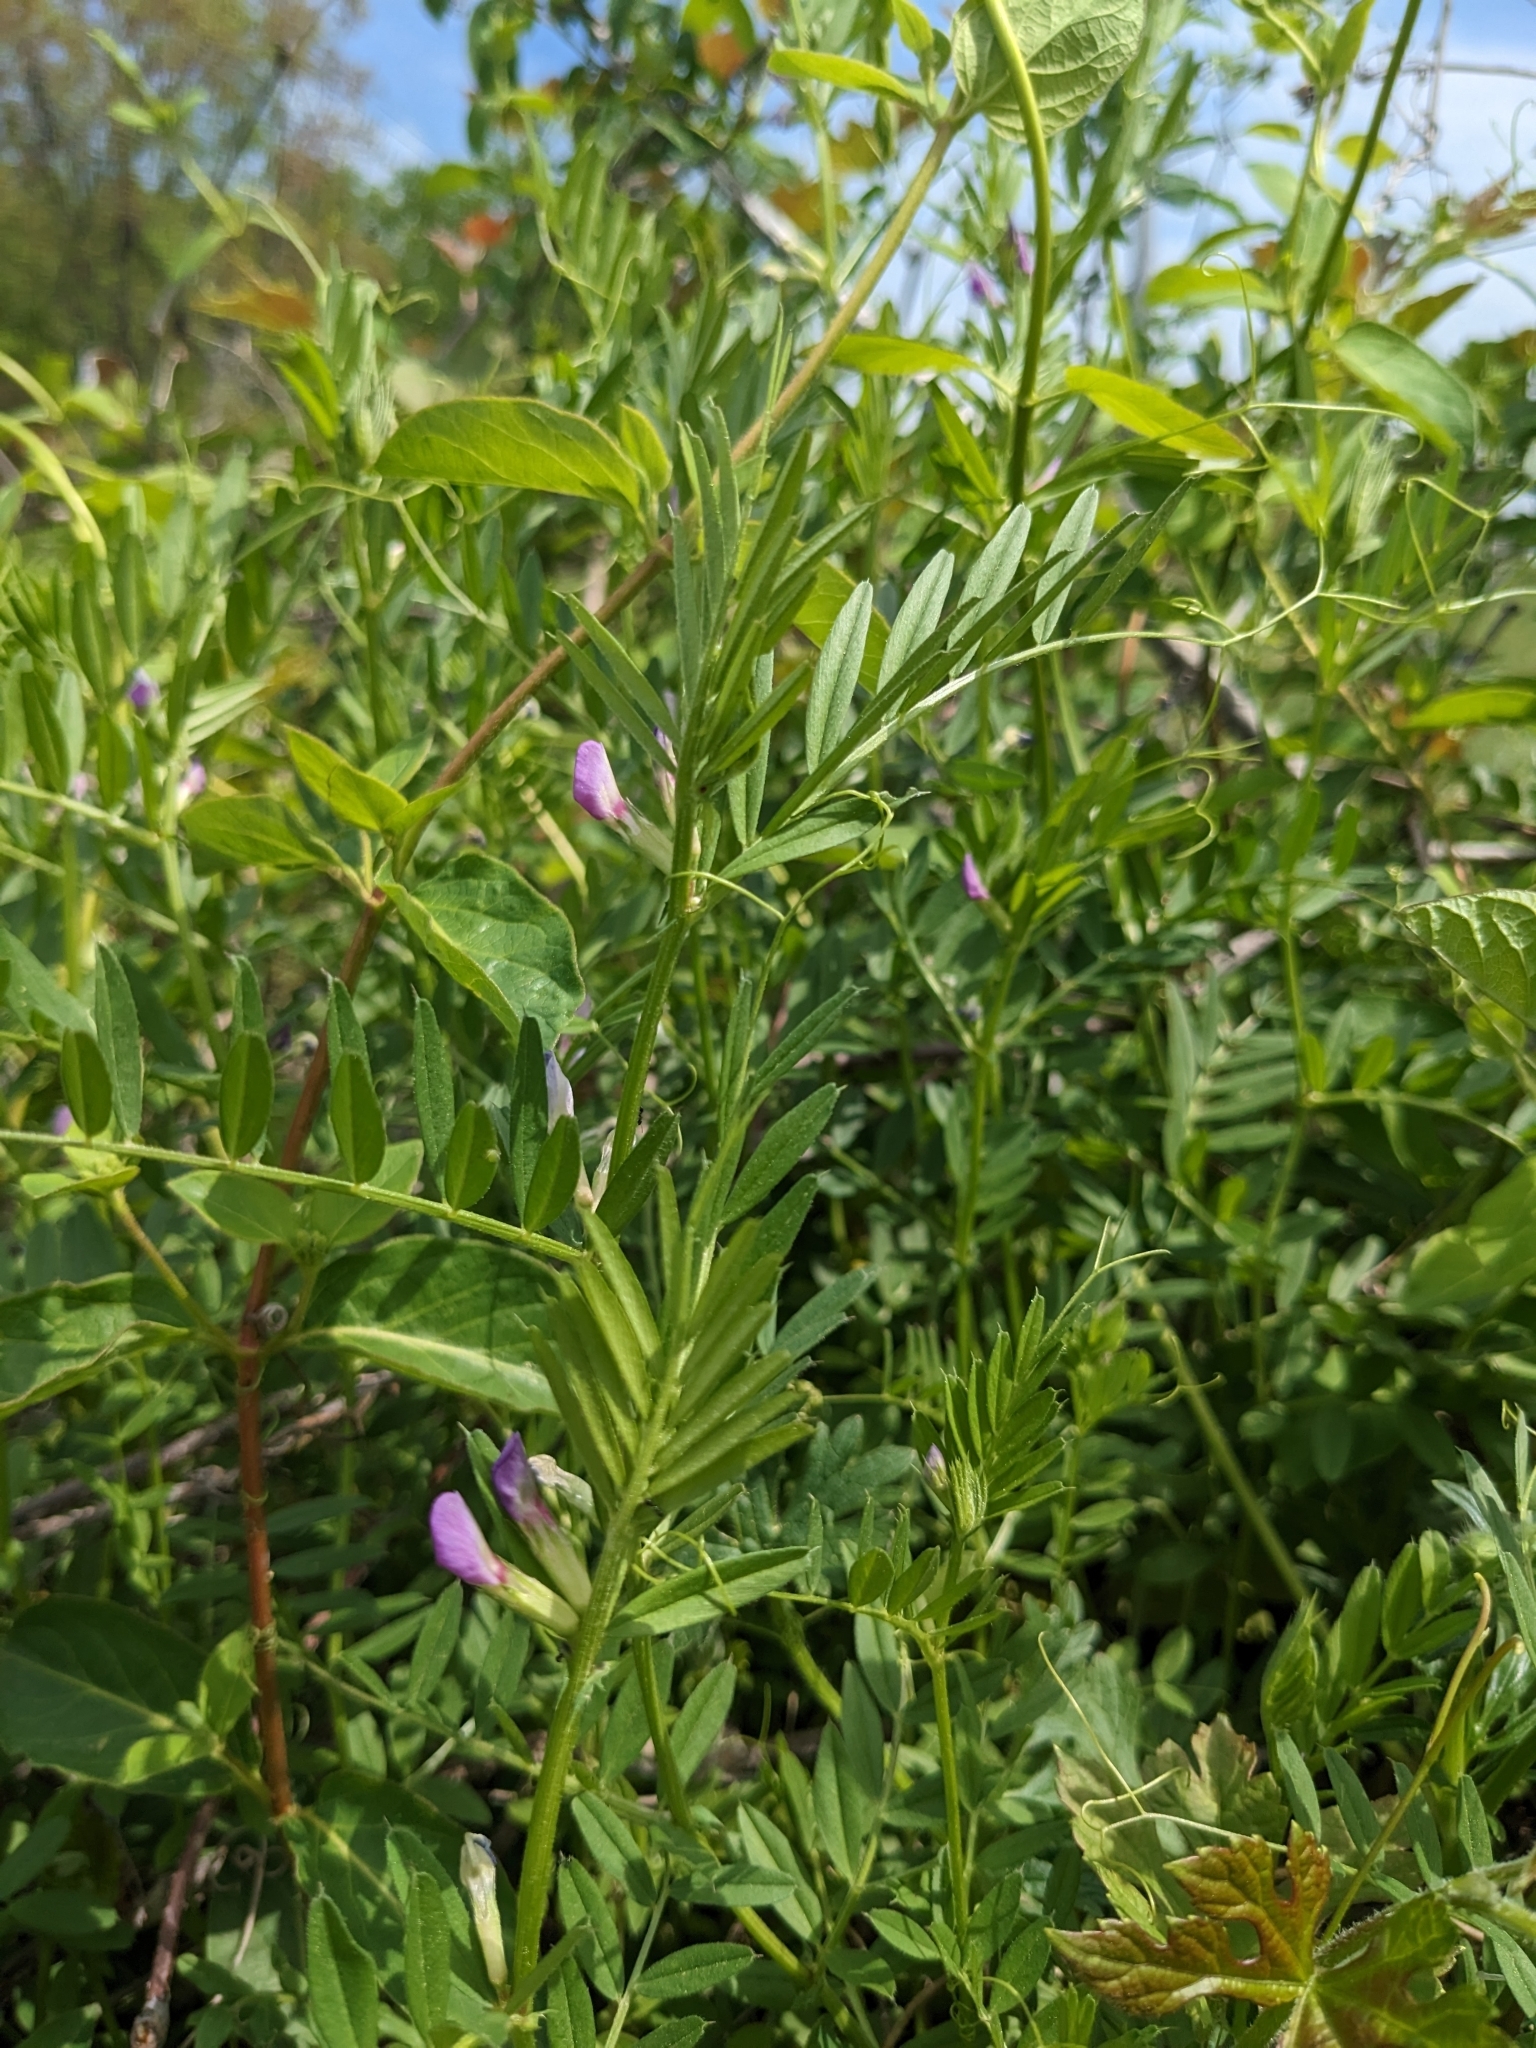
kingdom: Plantae
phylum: Tracheophyta
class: Magnoliopsida
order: Fabales
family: Fabaceae
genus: Vicia
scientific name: Vicia sativa
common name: Garden vetch
